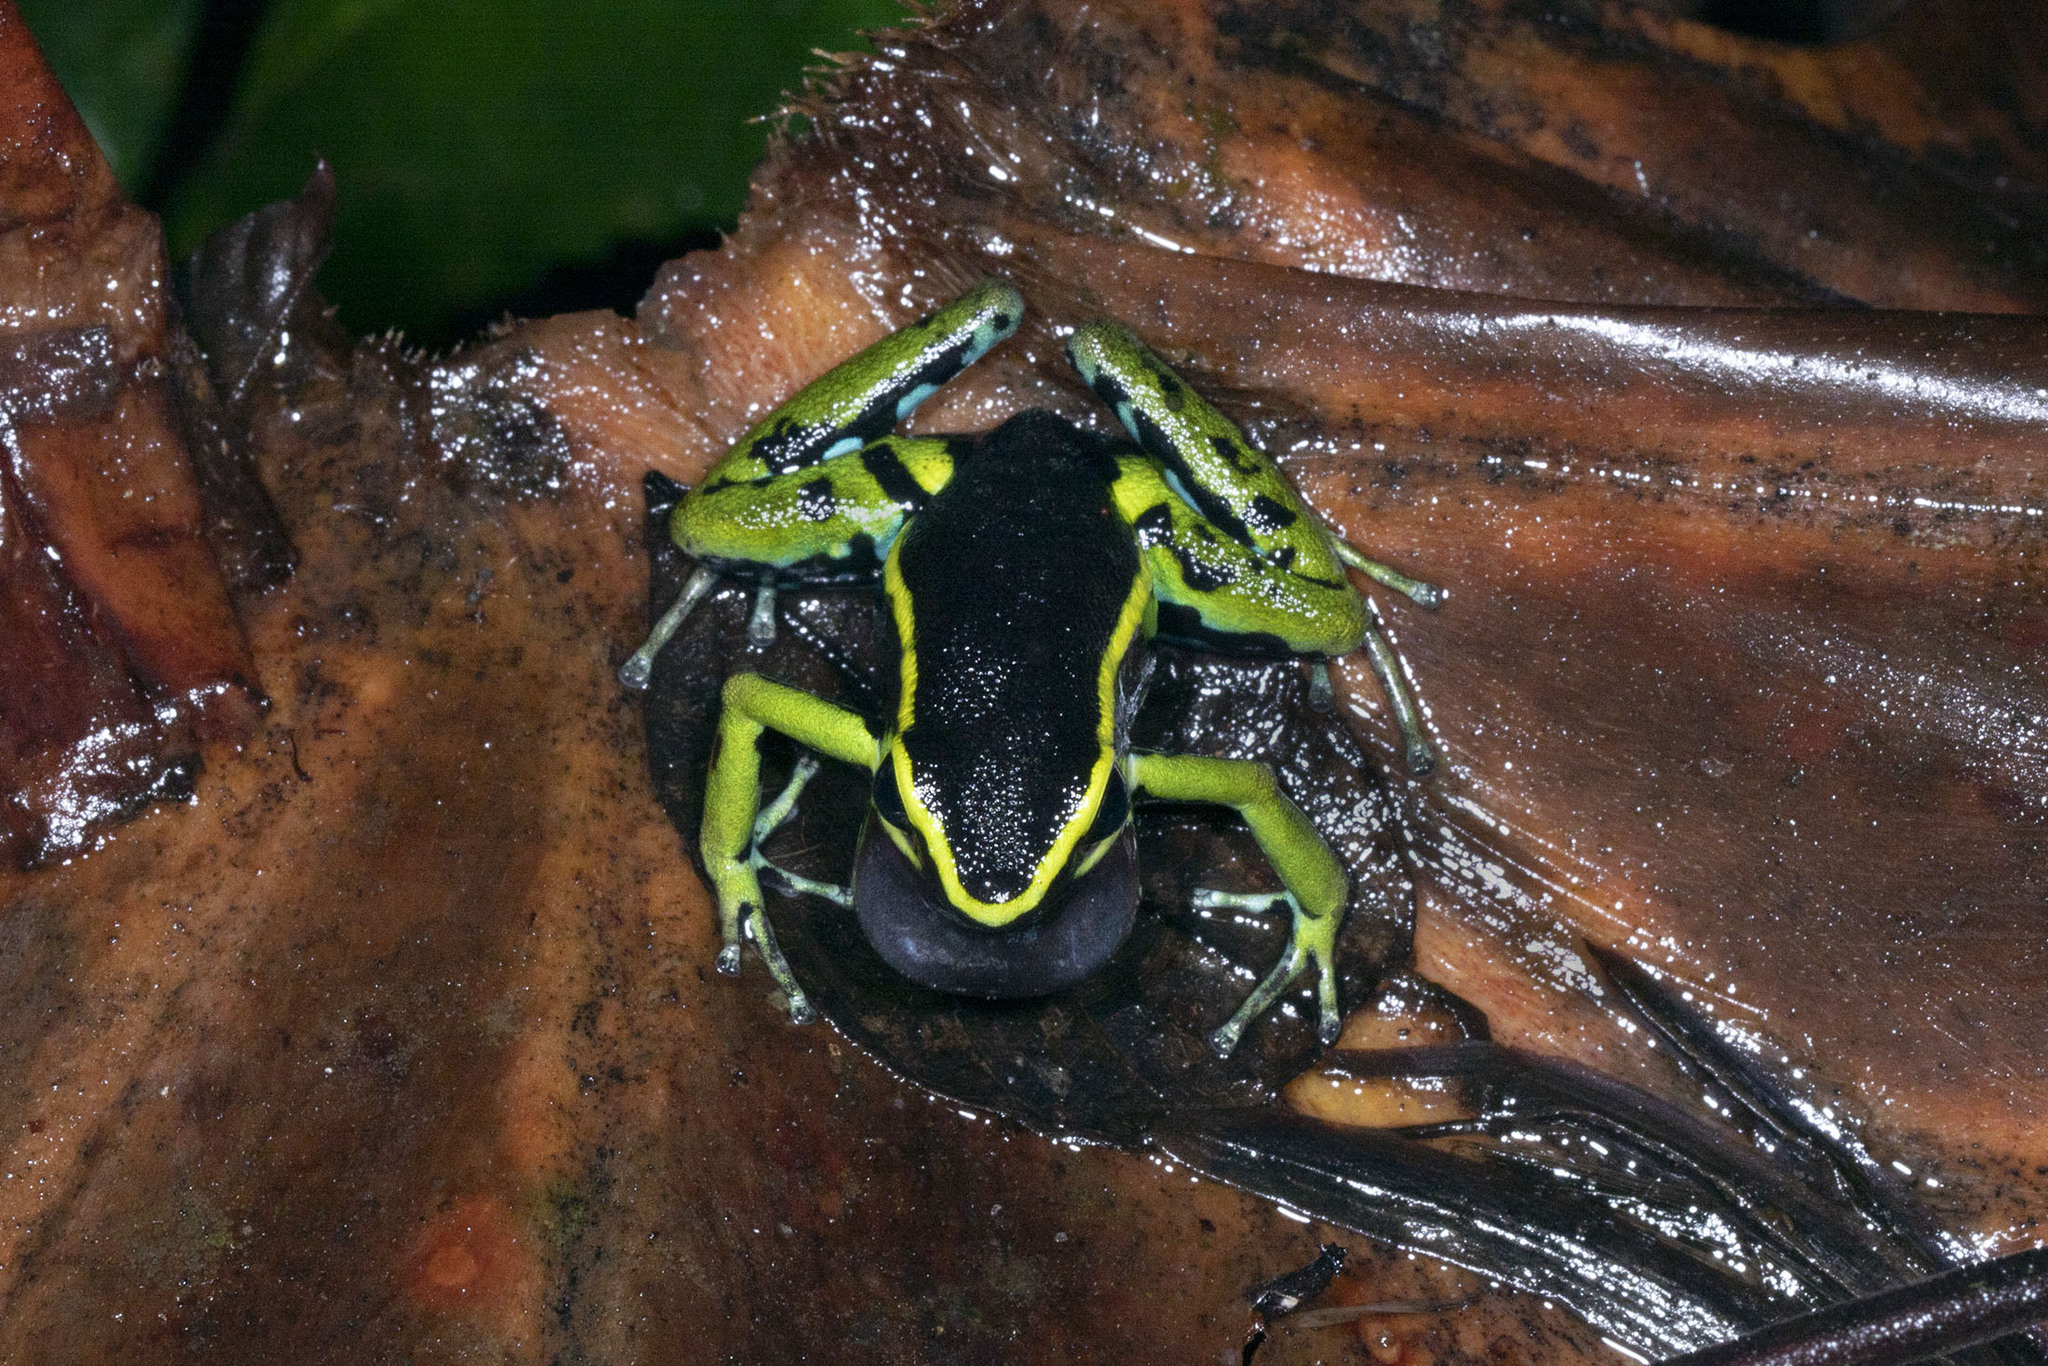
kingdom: Animalia
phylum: Chordata
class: Amphibia
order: Anura
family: Dendrobatidae
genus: Ameerega
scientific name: Ameerega trivittata
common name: Three-striped arrow-poison frog
